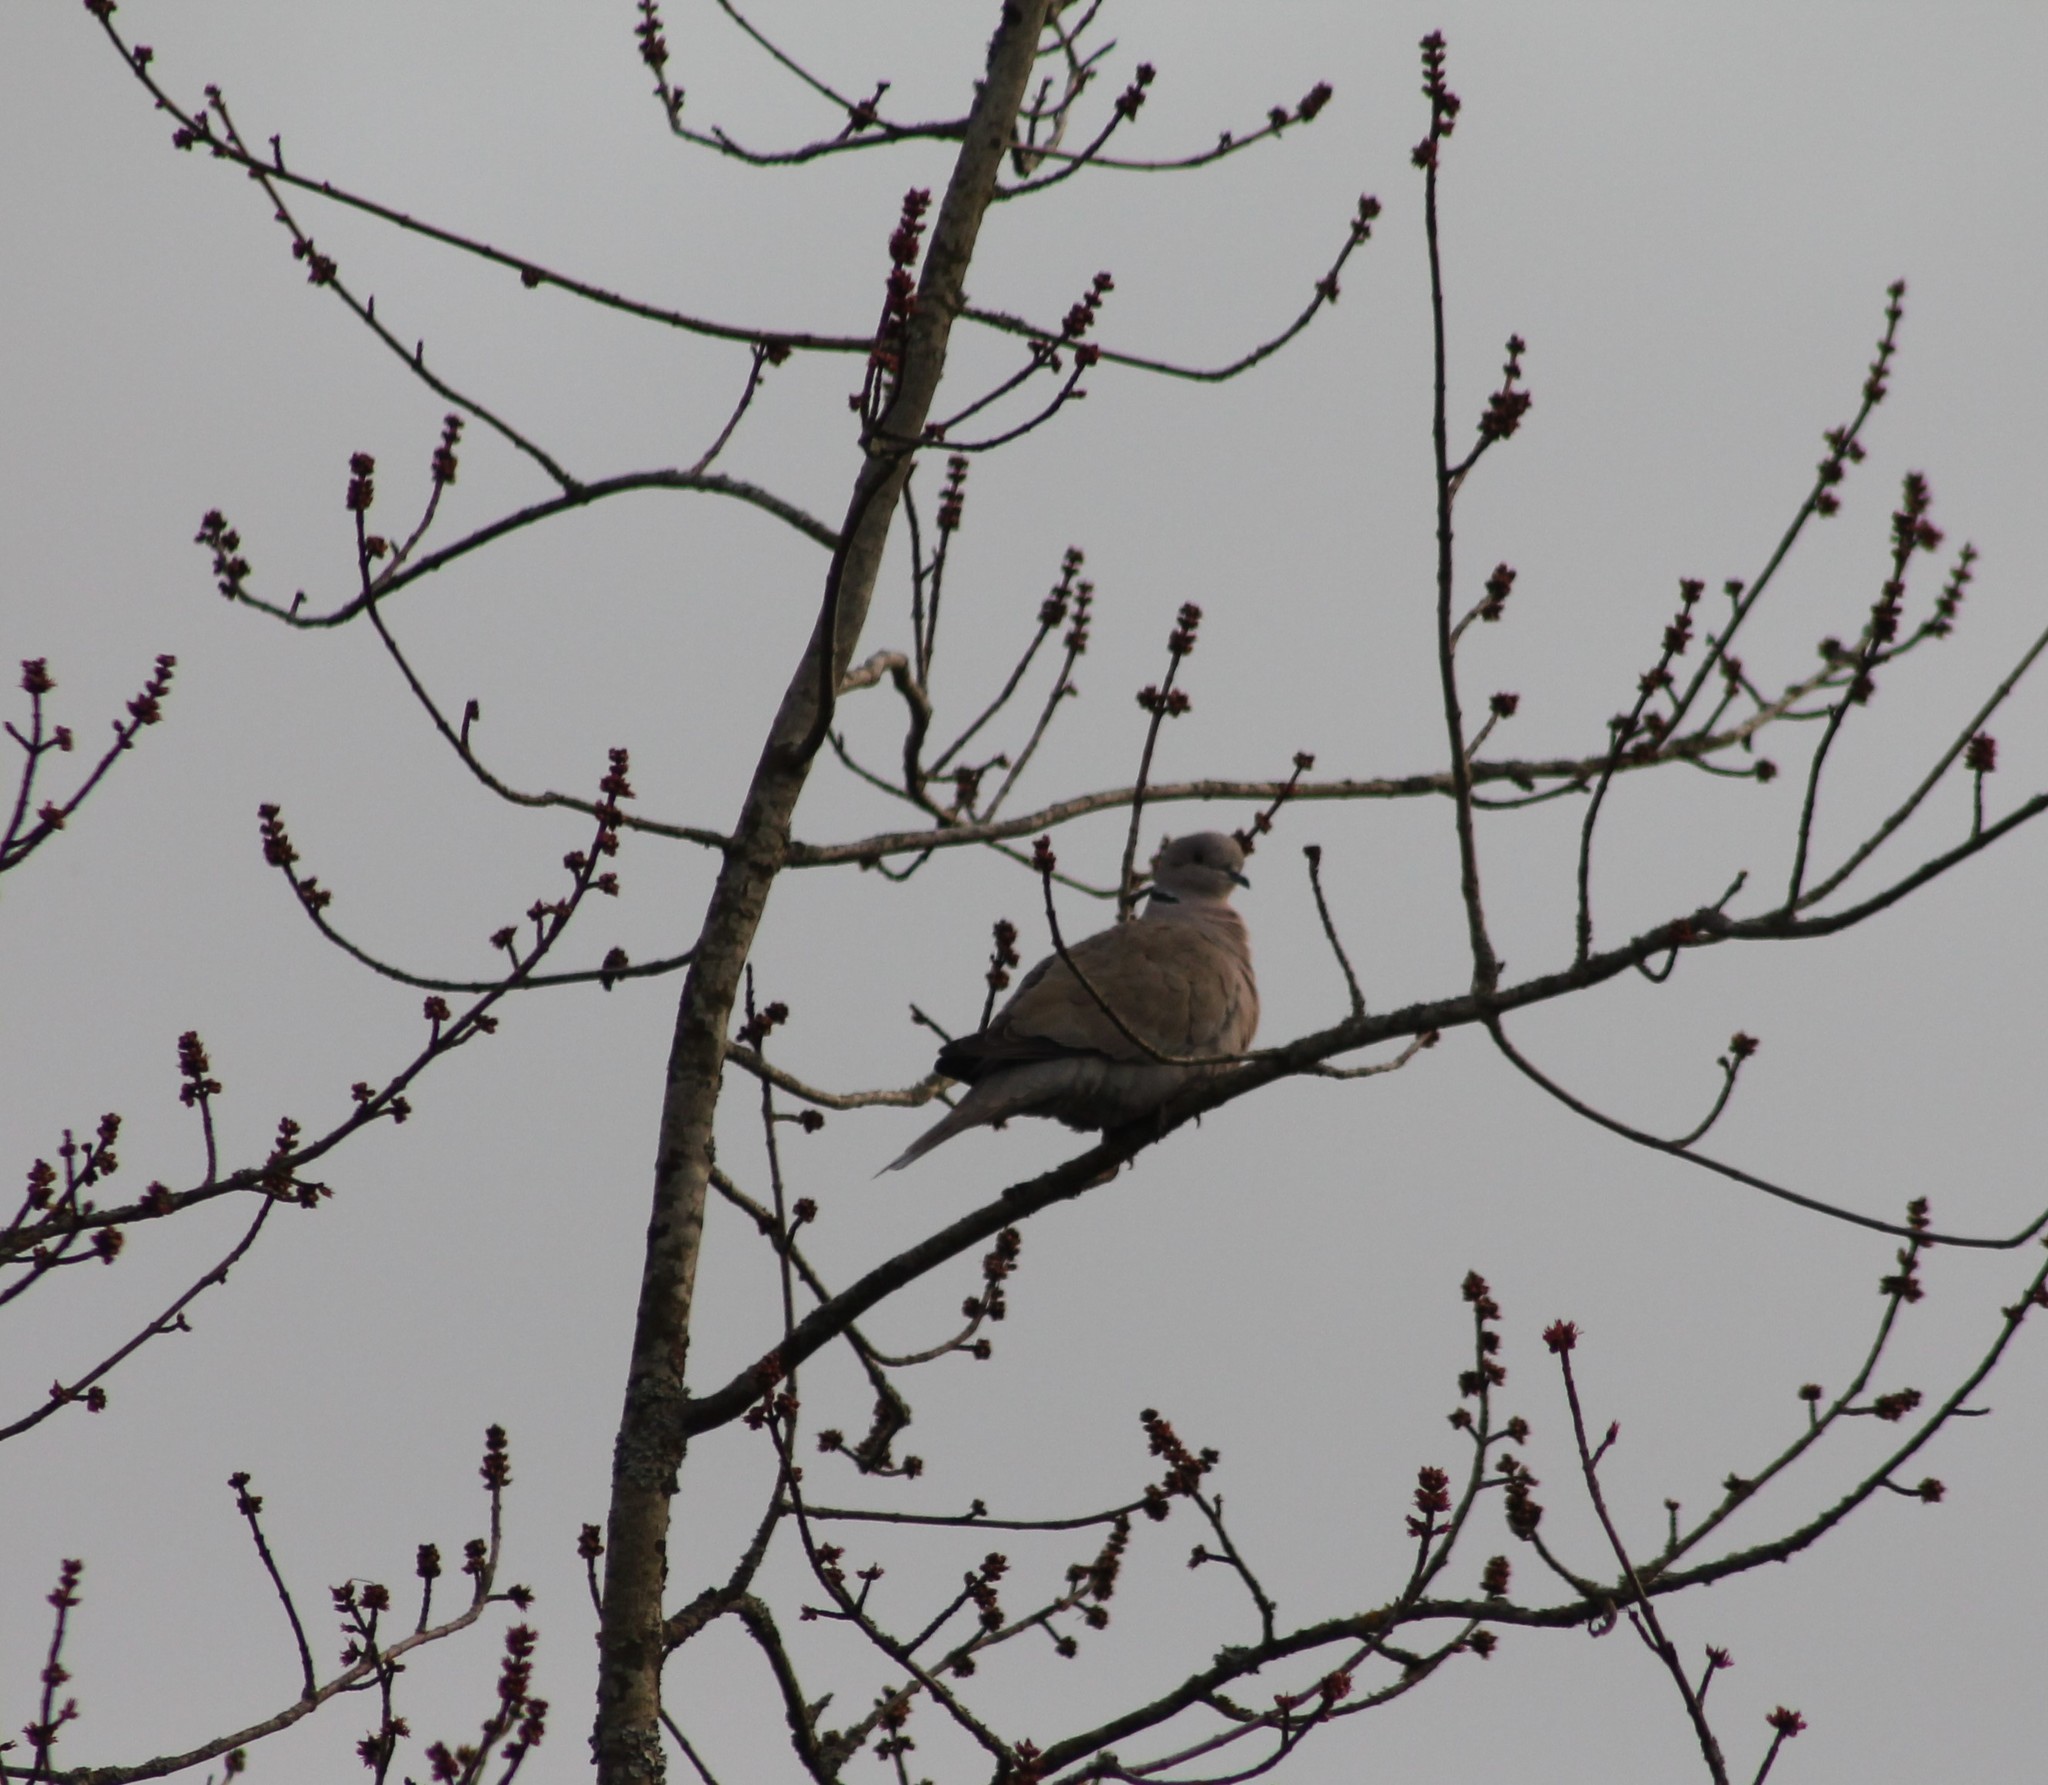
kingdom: Animalia
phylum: Chordata
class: Aves
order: Columbiformes
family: Columbidae
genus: Streptopelia
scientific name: Streptopelia decaocto
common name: Eurasian collared dove
